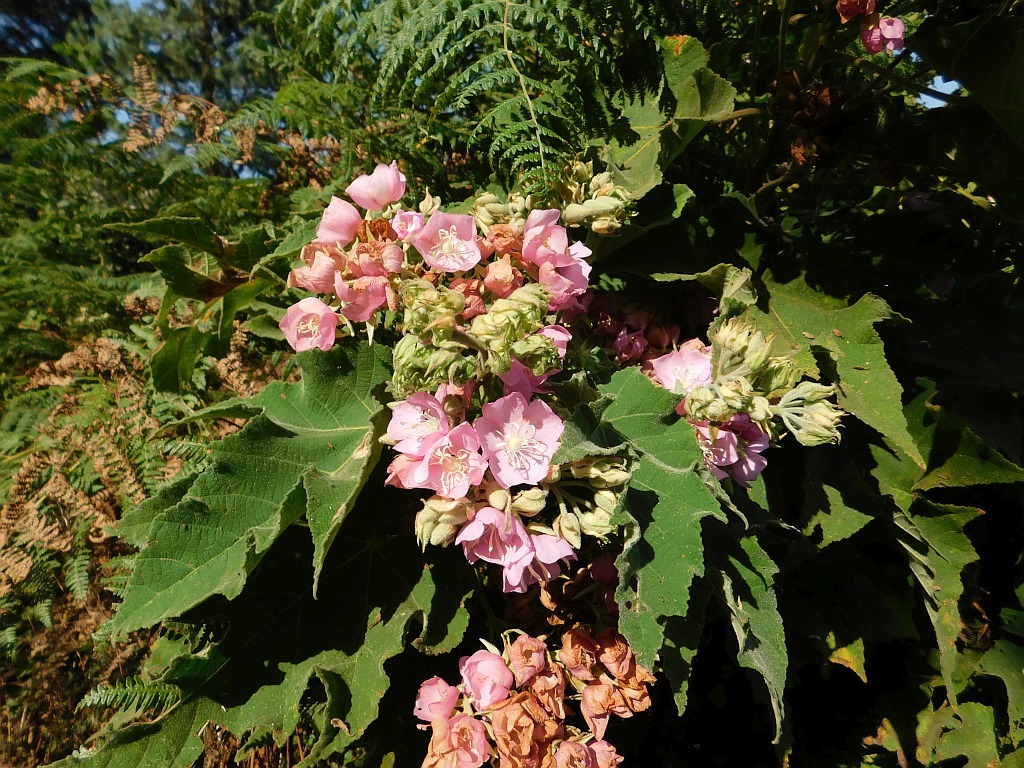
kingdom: Plantae
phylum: Tracheophyta
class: Magnoliopsida
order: Malvales
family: Malvaceae
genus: Dombeya
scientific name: Dombeya burgessiae
